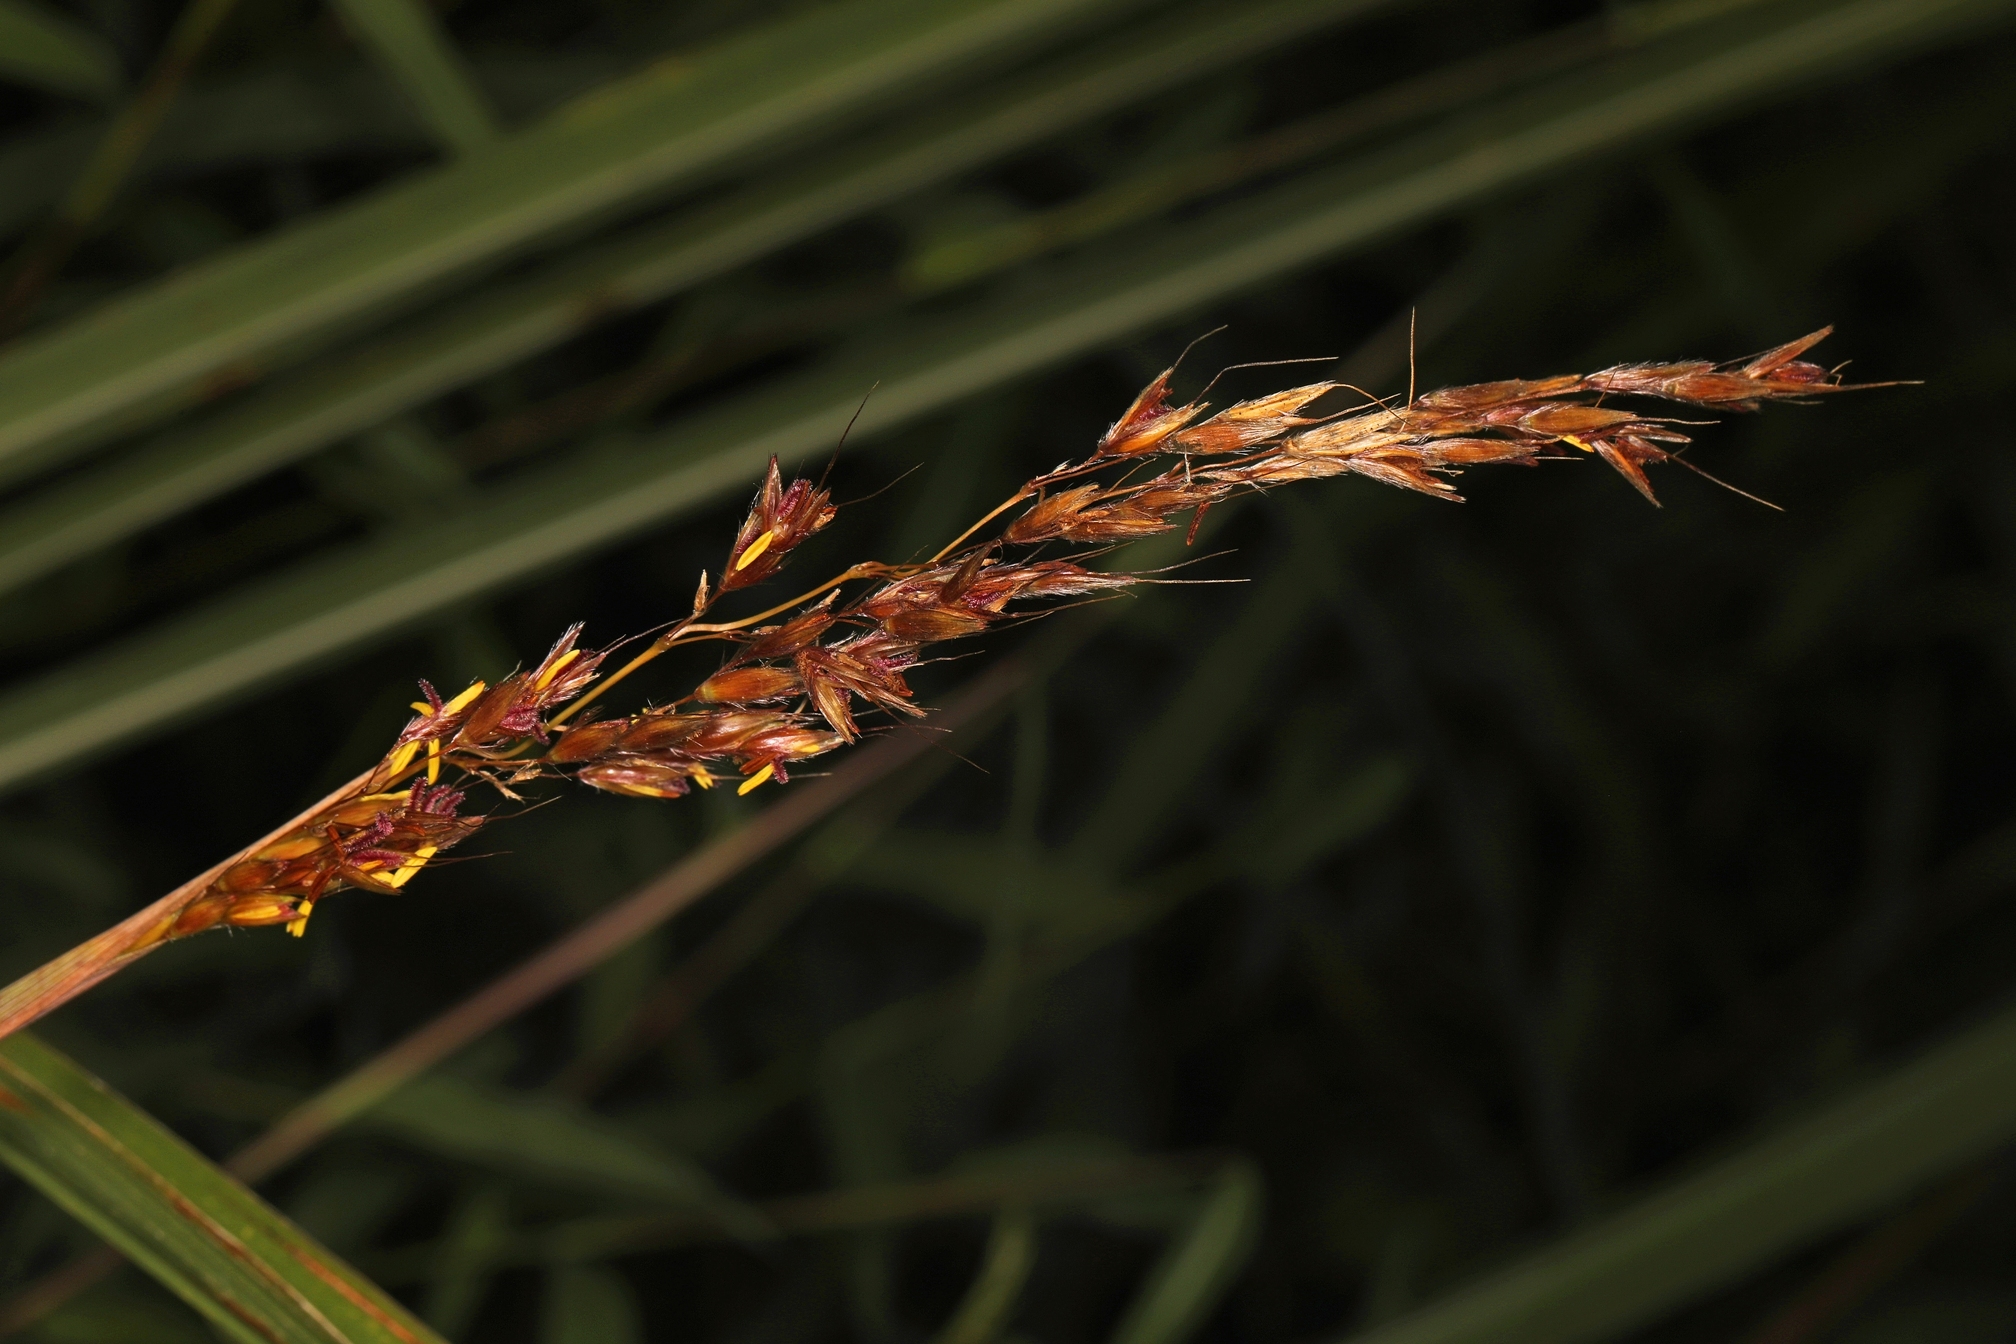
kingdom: Plantae
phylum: Tracheophyta
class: Liliopsida
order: Poales
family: Poaceae
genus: Sorghastrum
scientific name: Sorghastrum nutans
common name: Indian grass
